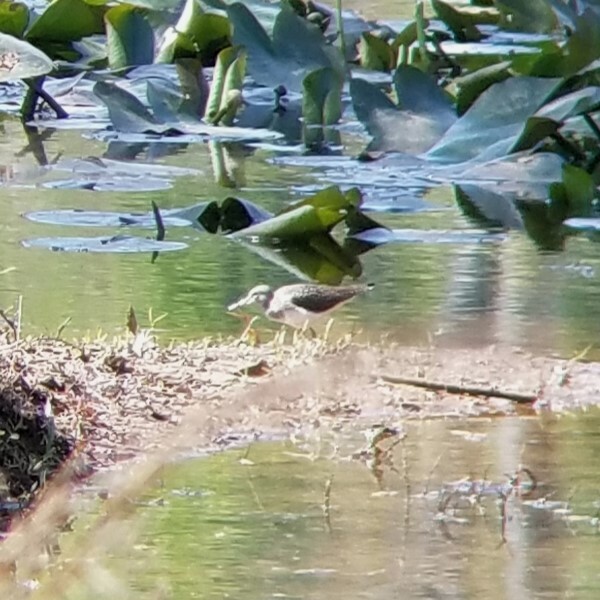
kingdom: Animalia
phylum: Chordata
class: Aves
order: Charadriiformes
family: Scolopacidae
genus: Tringa
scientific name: Tringa solitaria
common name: Solitary sandpiper
